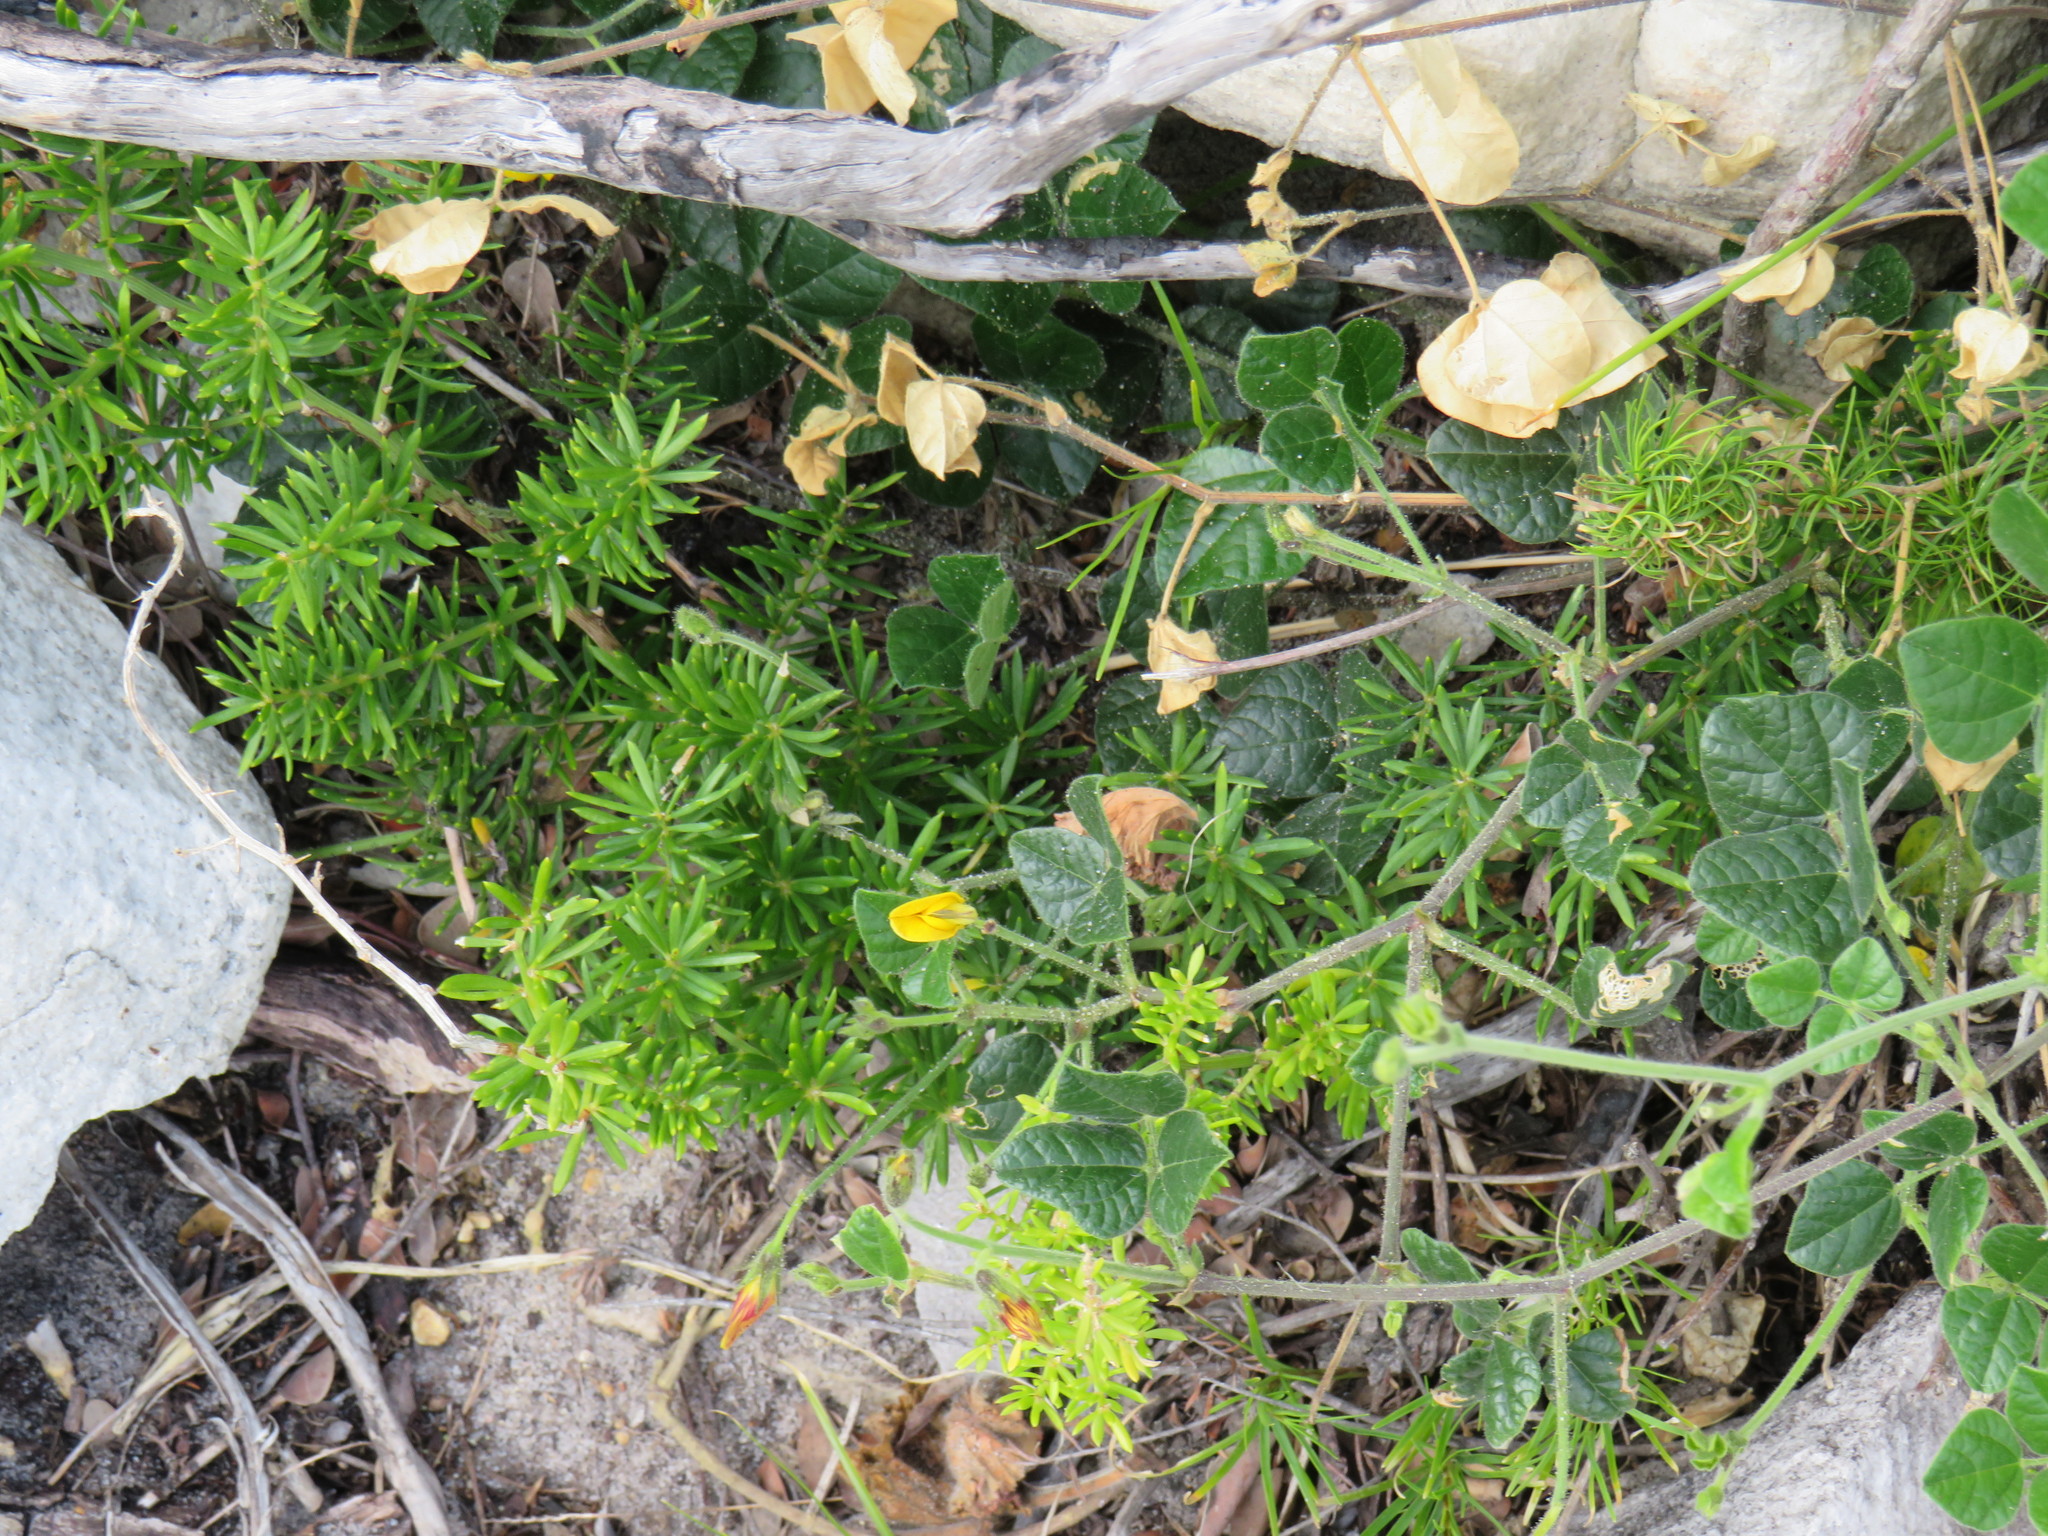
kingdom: Plantae
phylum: Tracheophyta
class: Magnoliopsida
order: Fabales
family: Fabaceae
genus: Bolusafra
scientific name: Bolusafra bituminosa
